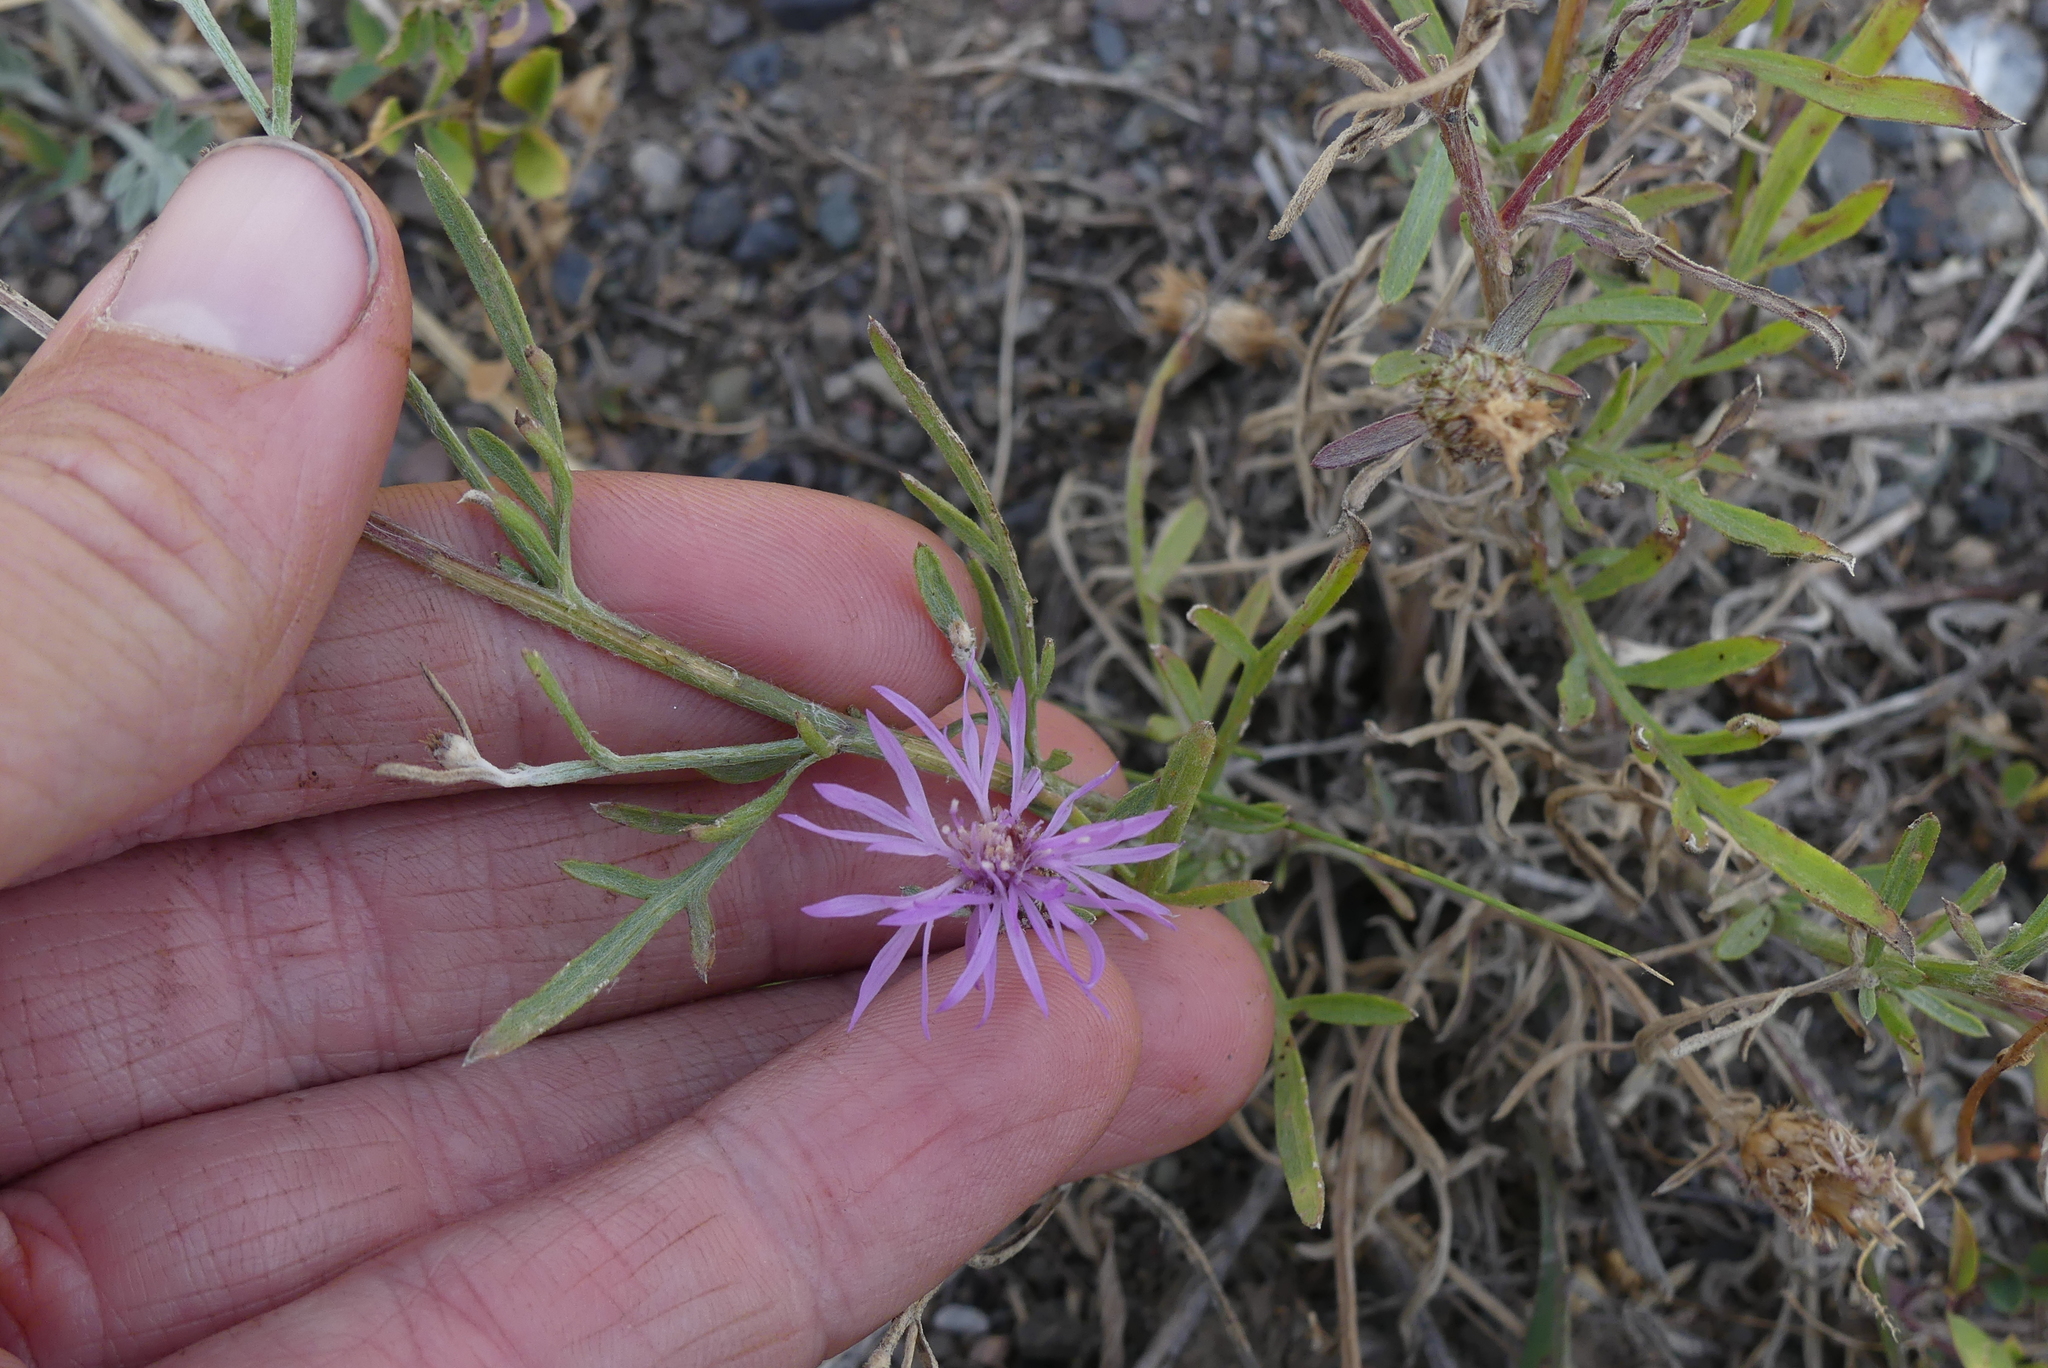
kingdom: Plantae
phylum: Tracheophyta
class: Magnoliopsida
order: Asterales
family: Asteraceae
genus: Centaurea
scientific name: Centaurea stoebe
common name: Spotted knapweed
